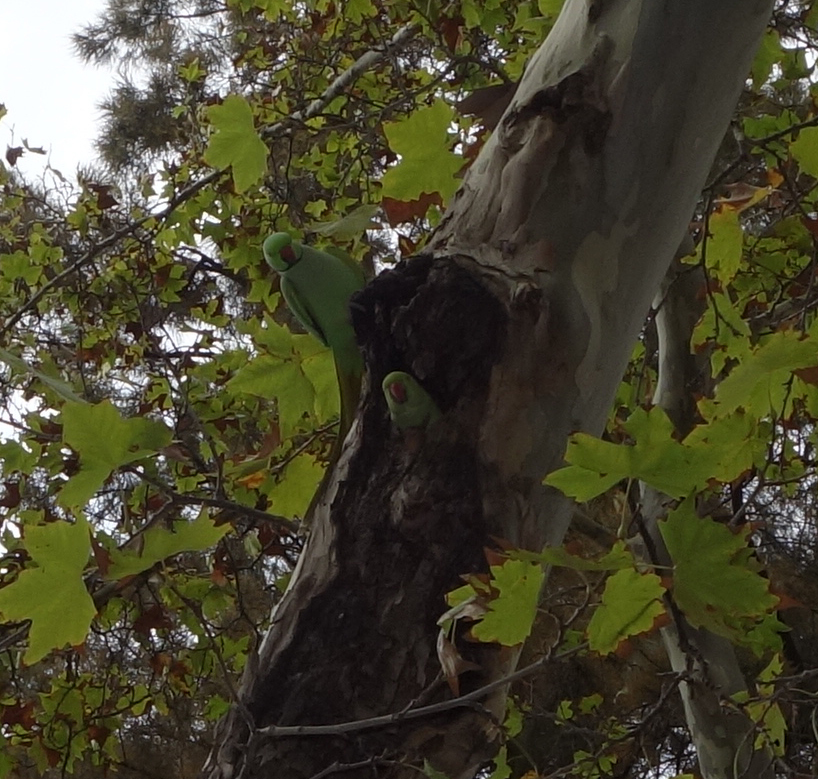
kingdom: Animalia
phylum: Chordata
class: Aves
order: Psittaciformes
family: Psittacidae
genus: Psittacula
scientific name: Psittacula krameri
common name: Rose-ringed parakeet
